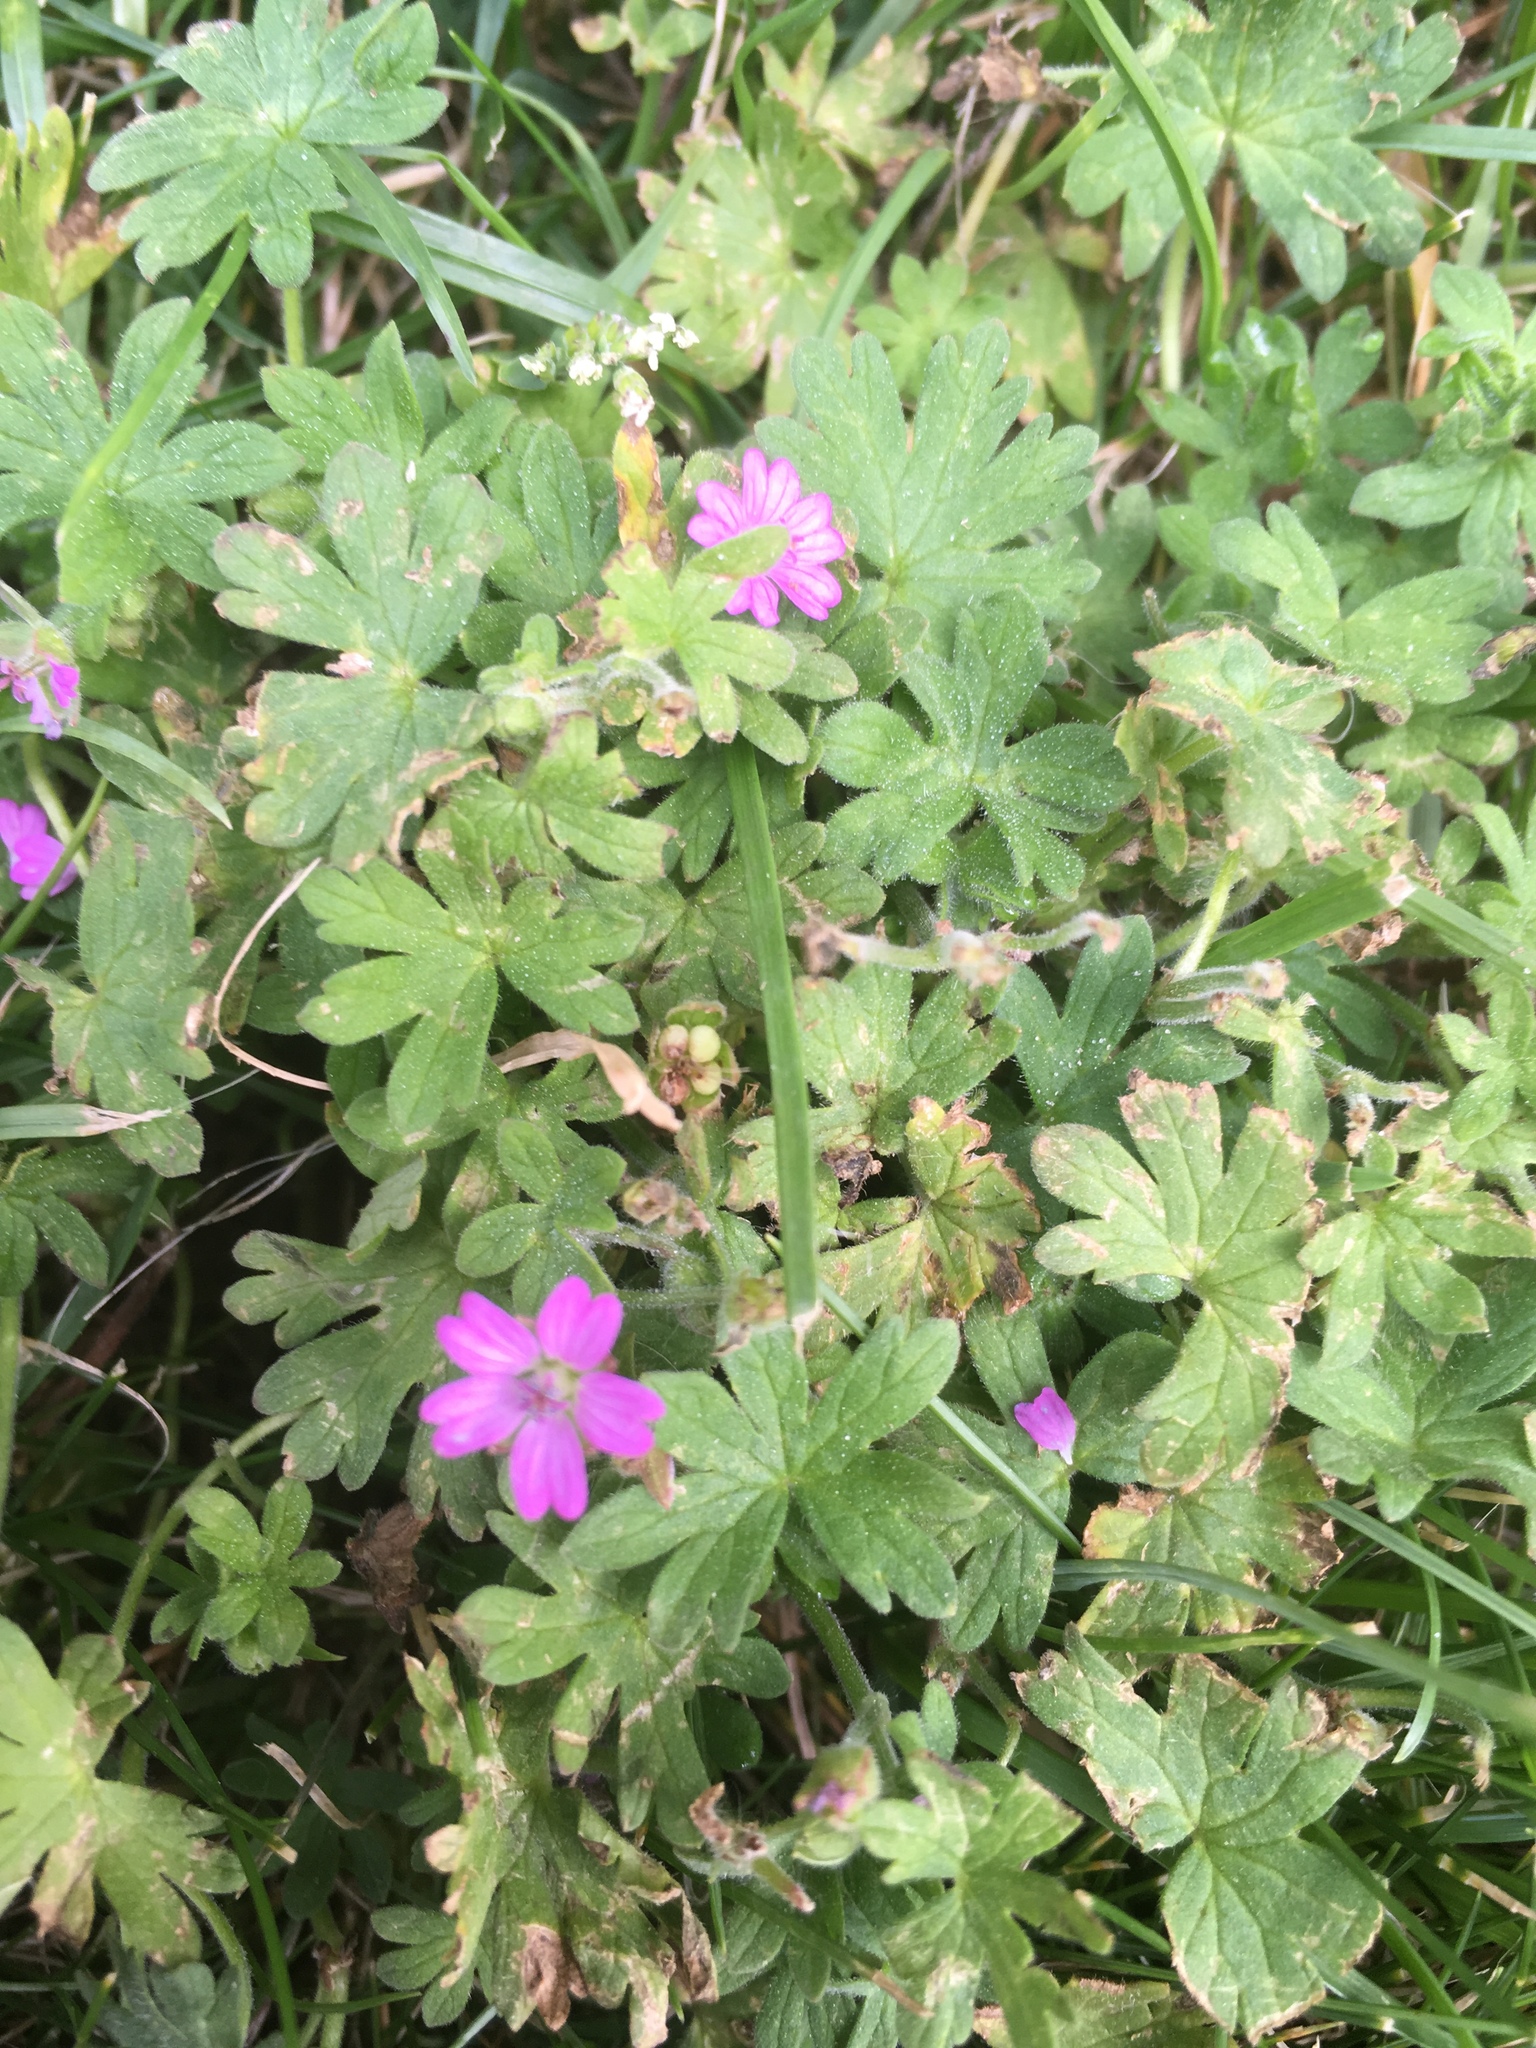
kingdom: Plantae
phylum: Tracheophyta
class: Magnoliopsida
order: Geraniales
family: Geraniaceae
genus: Geranium
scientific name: Geranium robertianum
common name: Herb-robert
